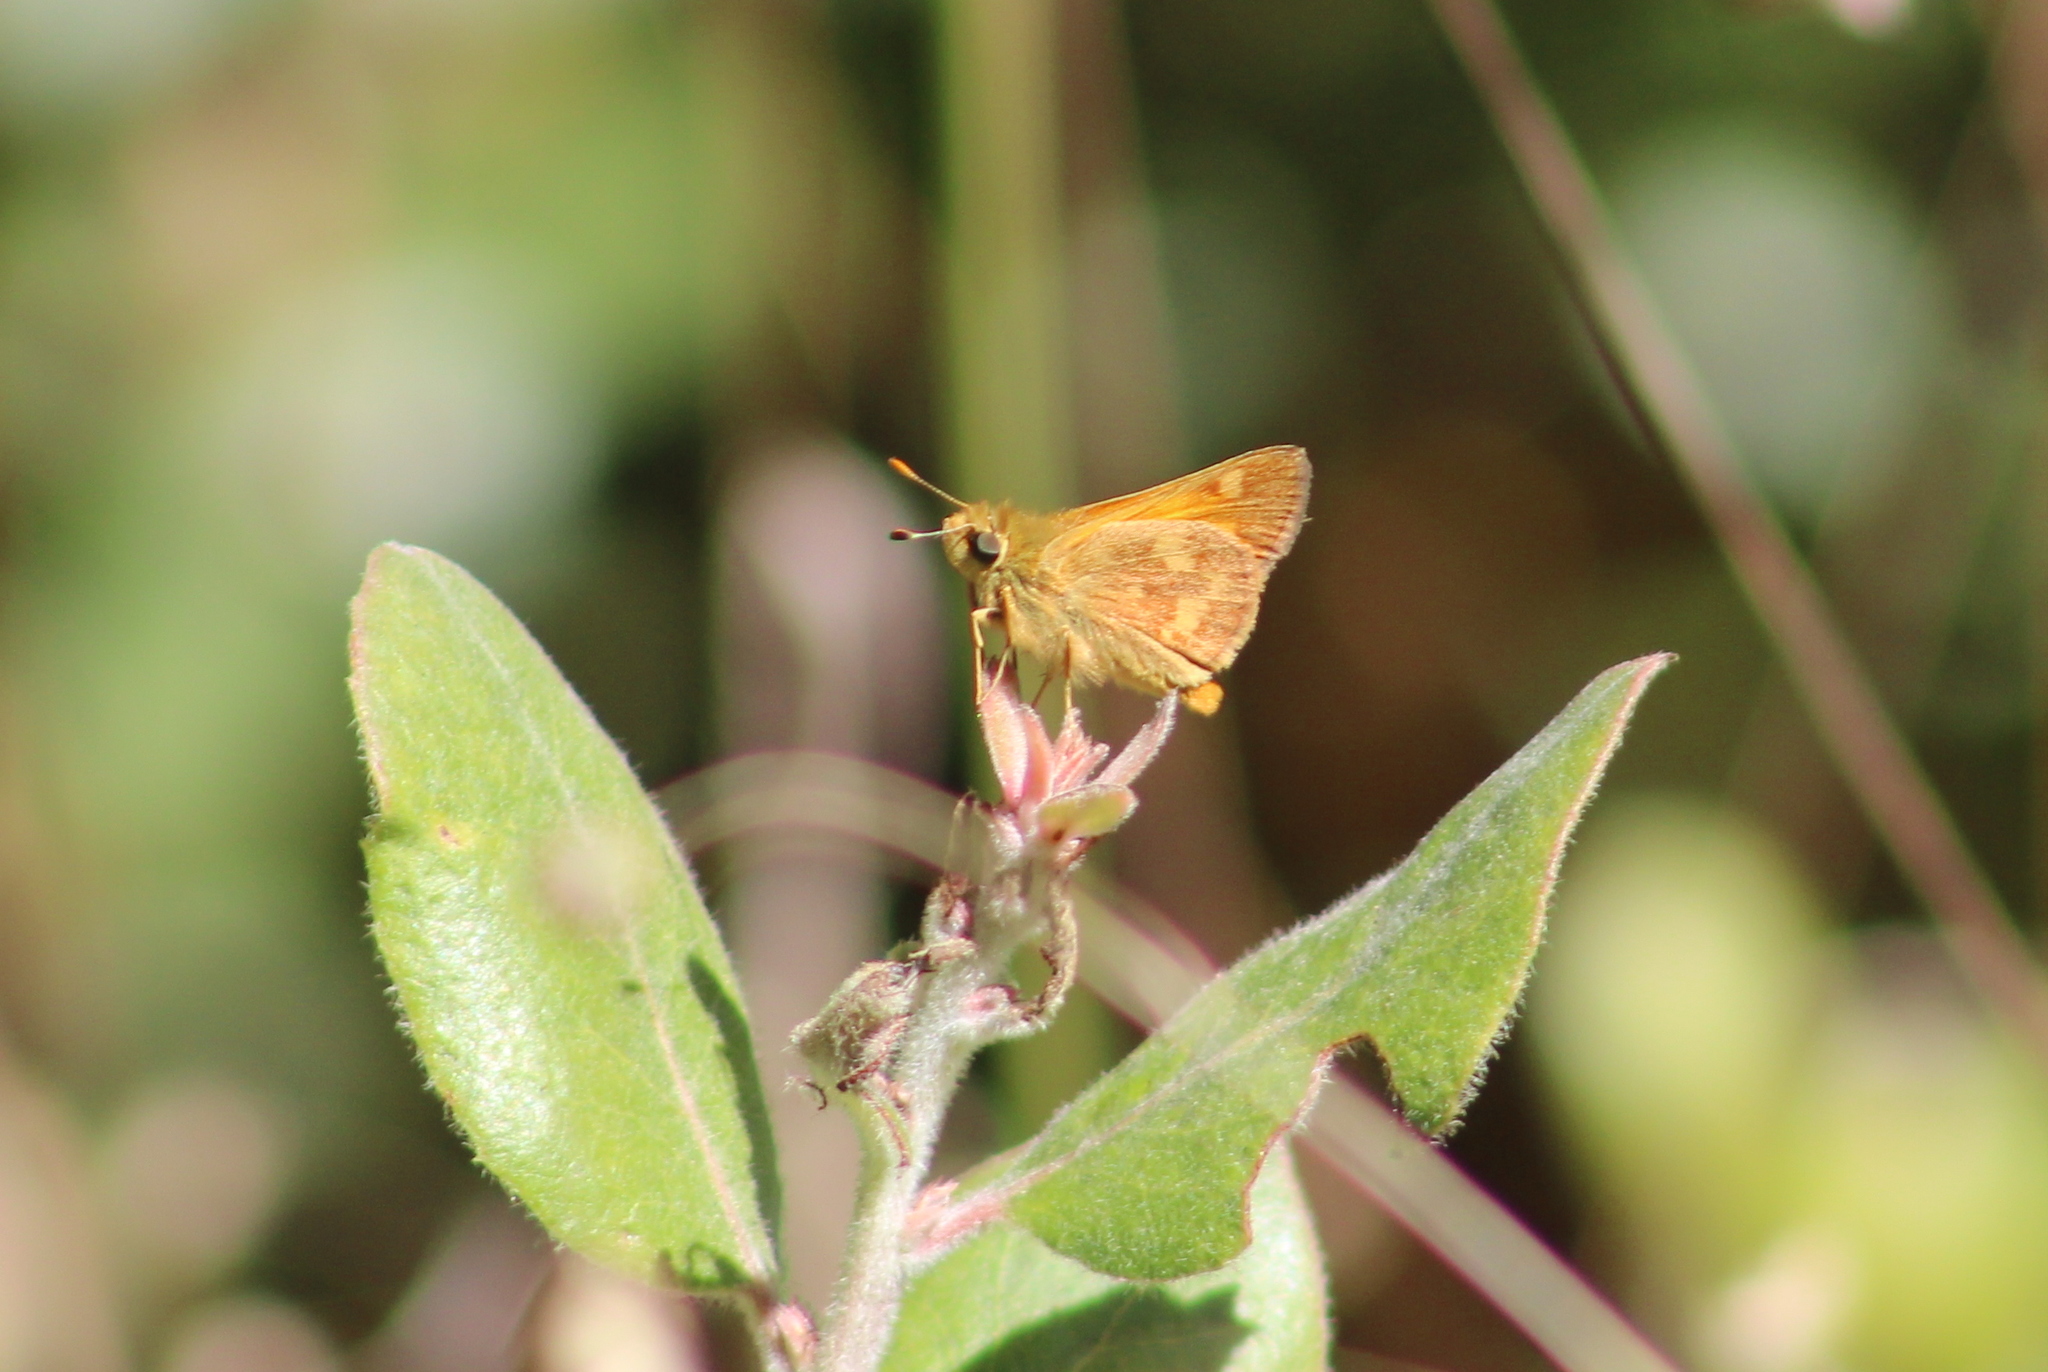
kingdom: Animalia
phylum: Arthropoda
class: Insecta
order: Lepidoptera
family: Hesperiidae
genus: Ochlodes
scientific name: Ochlodes sylvanoides
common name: Woodland skipper
